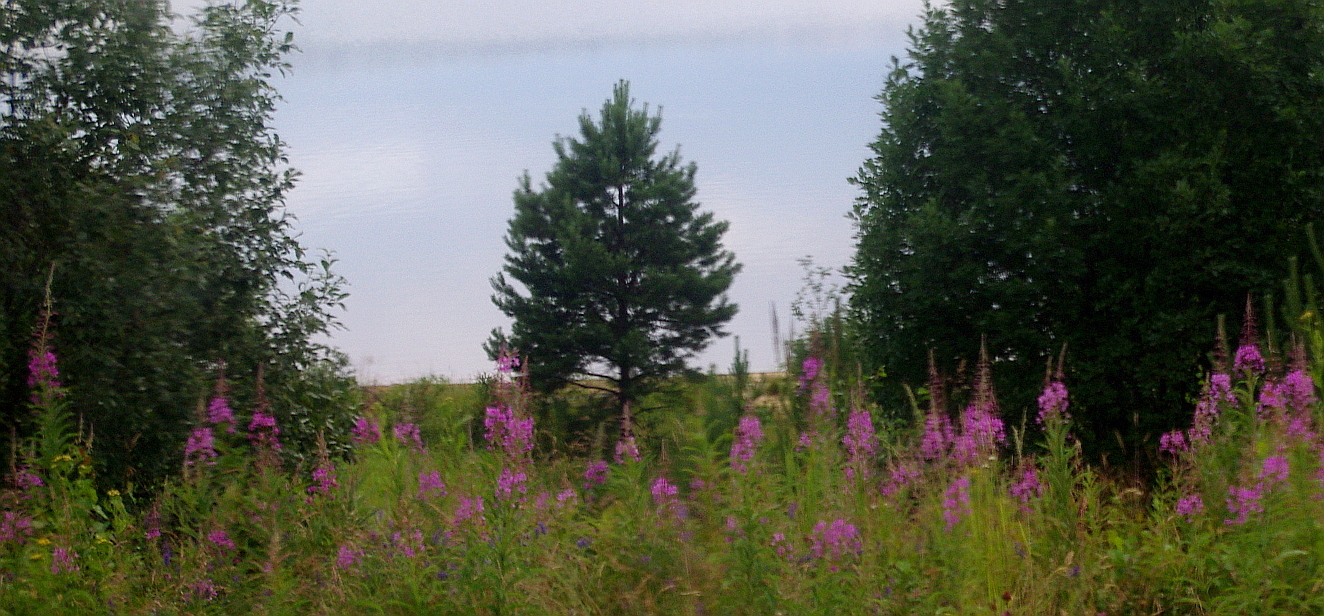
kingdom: Plantae
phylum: Tracheophyta
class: Pinopsida
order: Pinales
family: Pinaceae
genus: Pinus
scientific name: Pinus sylvestris
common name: Scots pine
